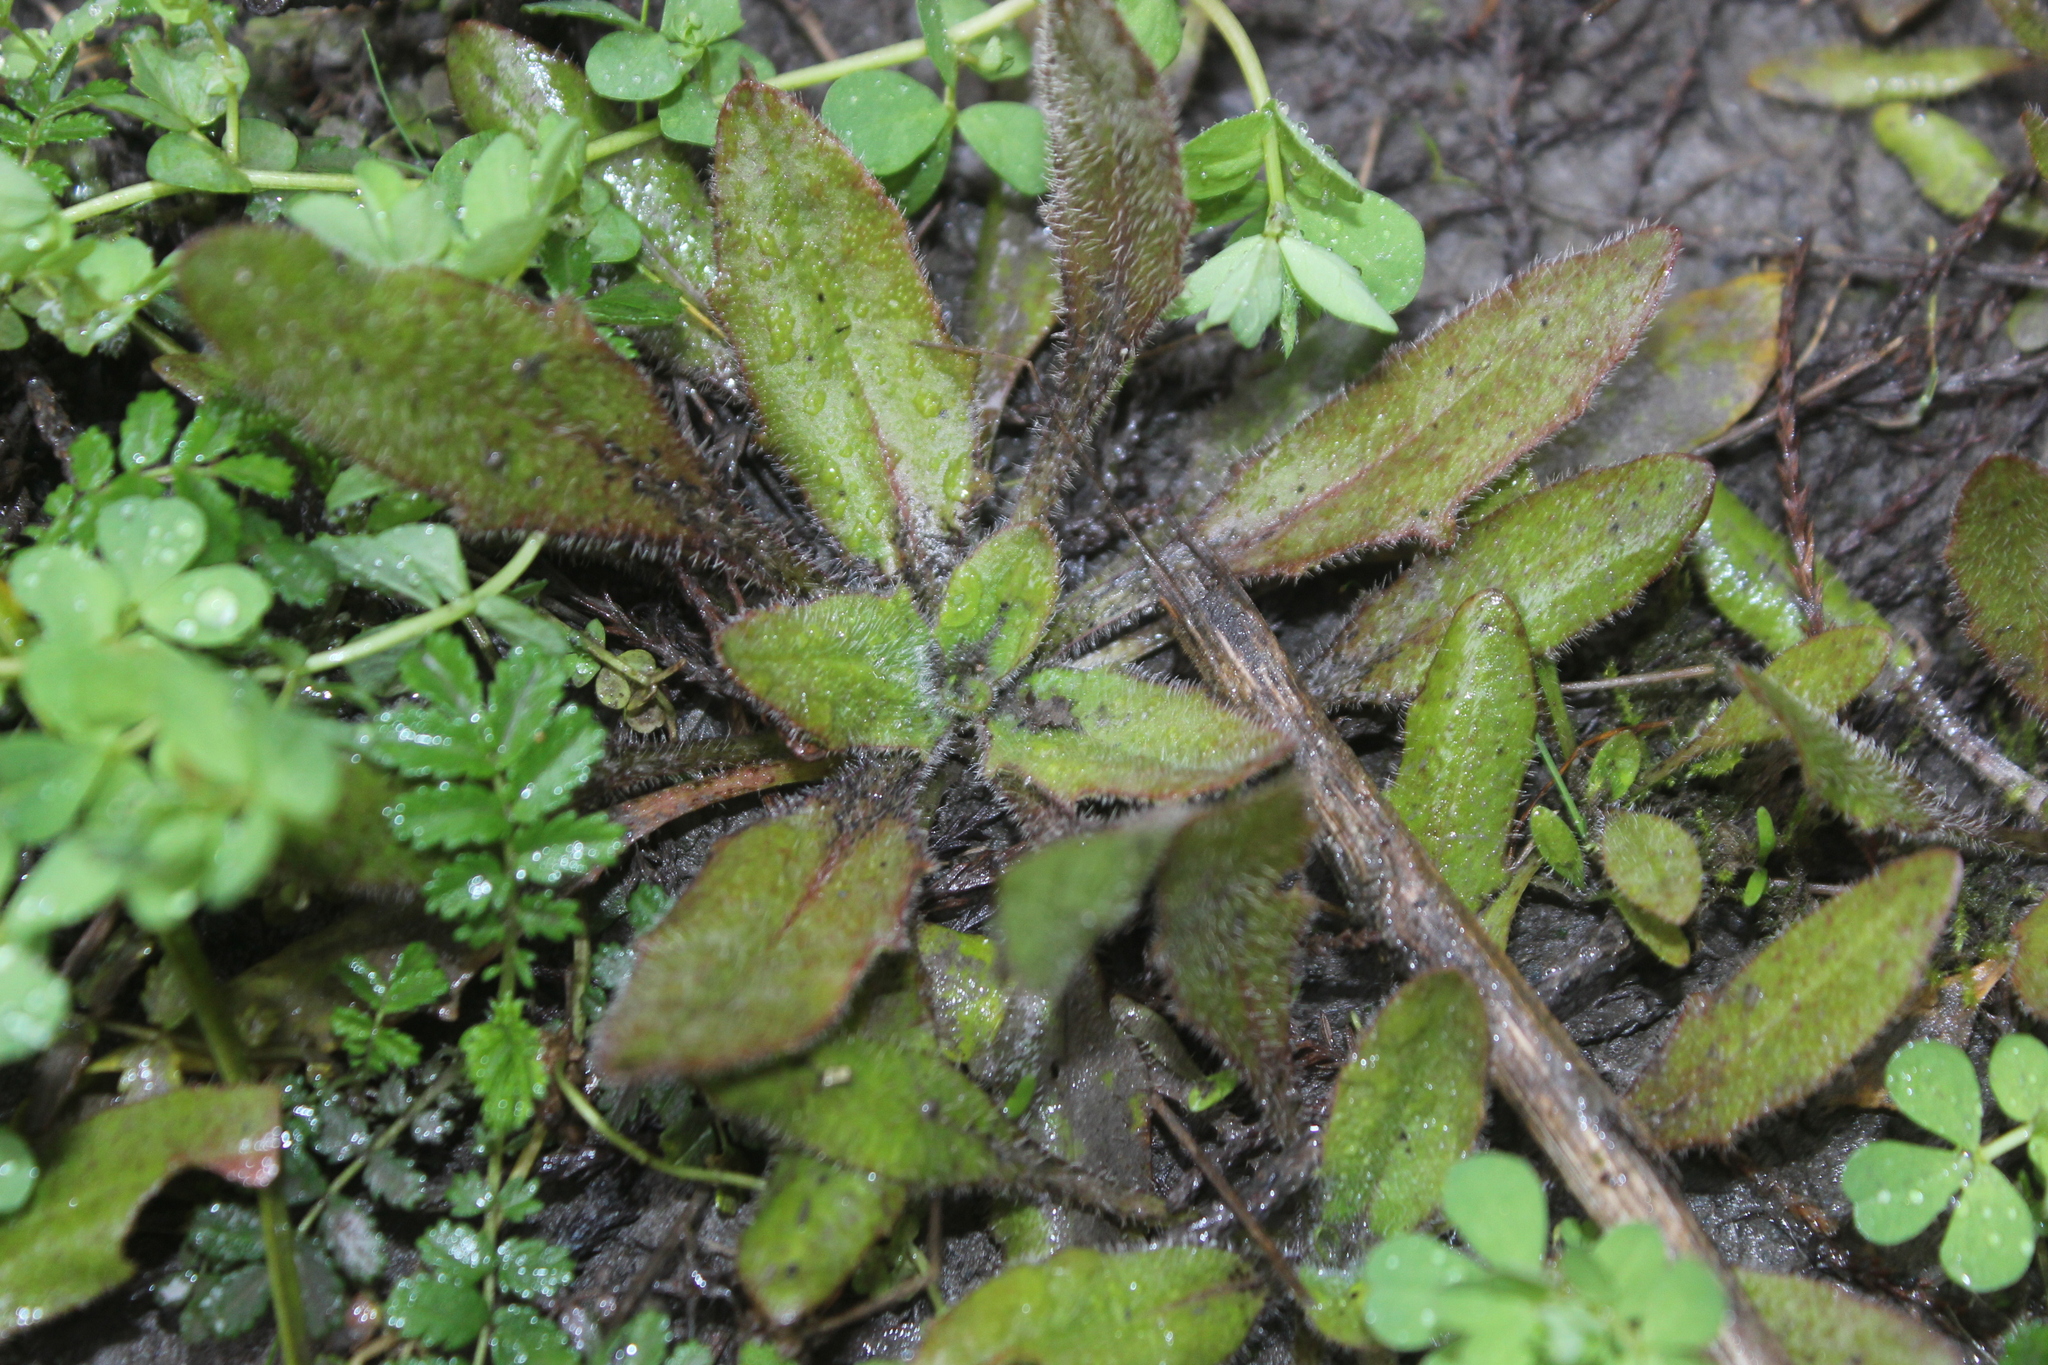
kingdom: Plantae
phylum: Tracheophyta
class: Magnoliopsida
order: Lamiales
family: Plantaginaceae
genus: Plantago
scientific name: Plantago raoulii
